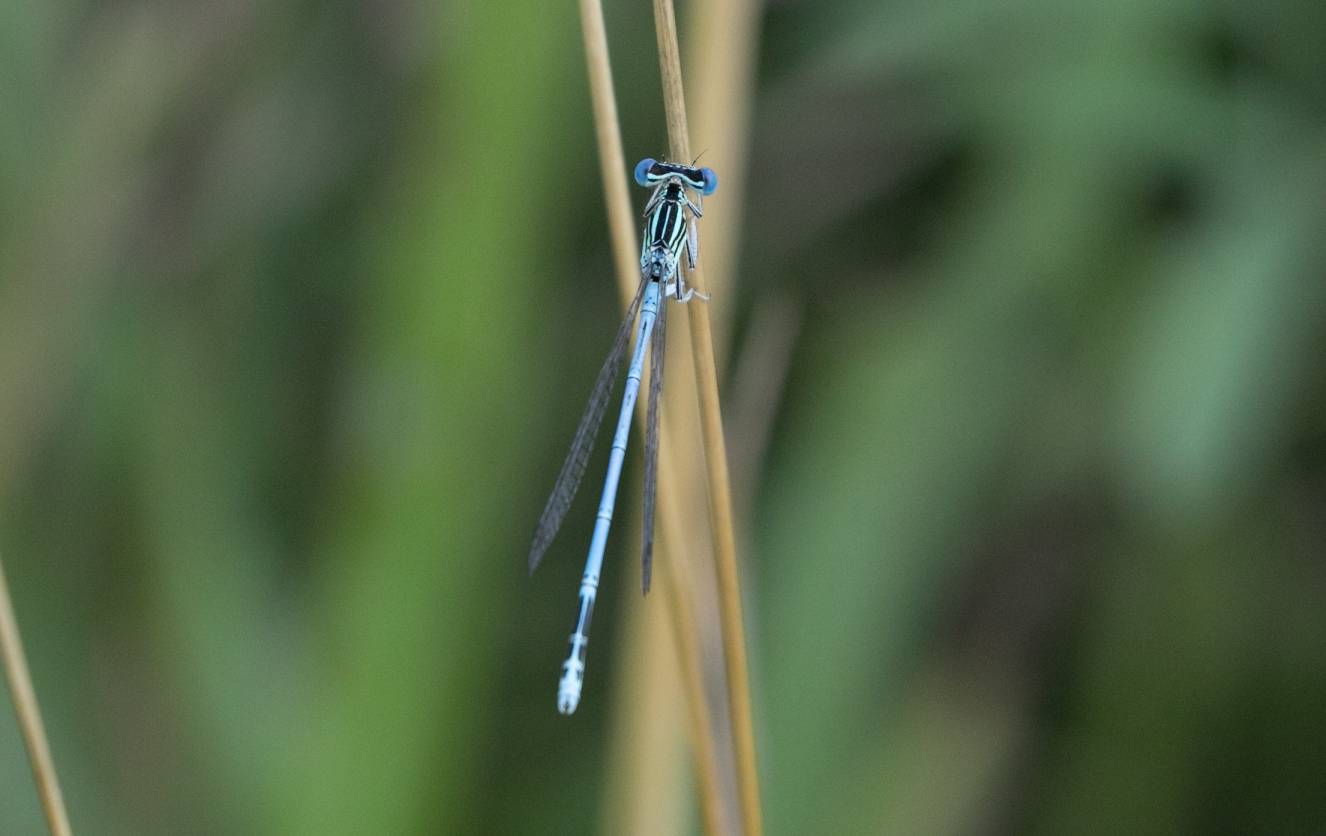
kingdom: Animalia
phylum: Arthropoda
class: Insecta
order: Odonata
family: Platycnemididae
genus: Platycnemis
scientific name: Platycnemis pennipes
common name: White-legged damselfly
